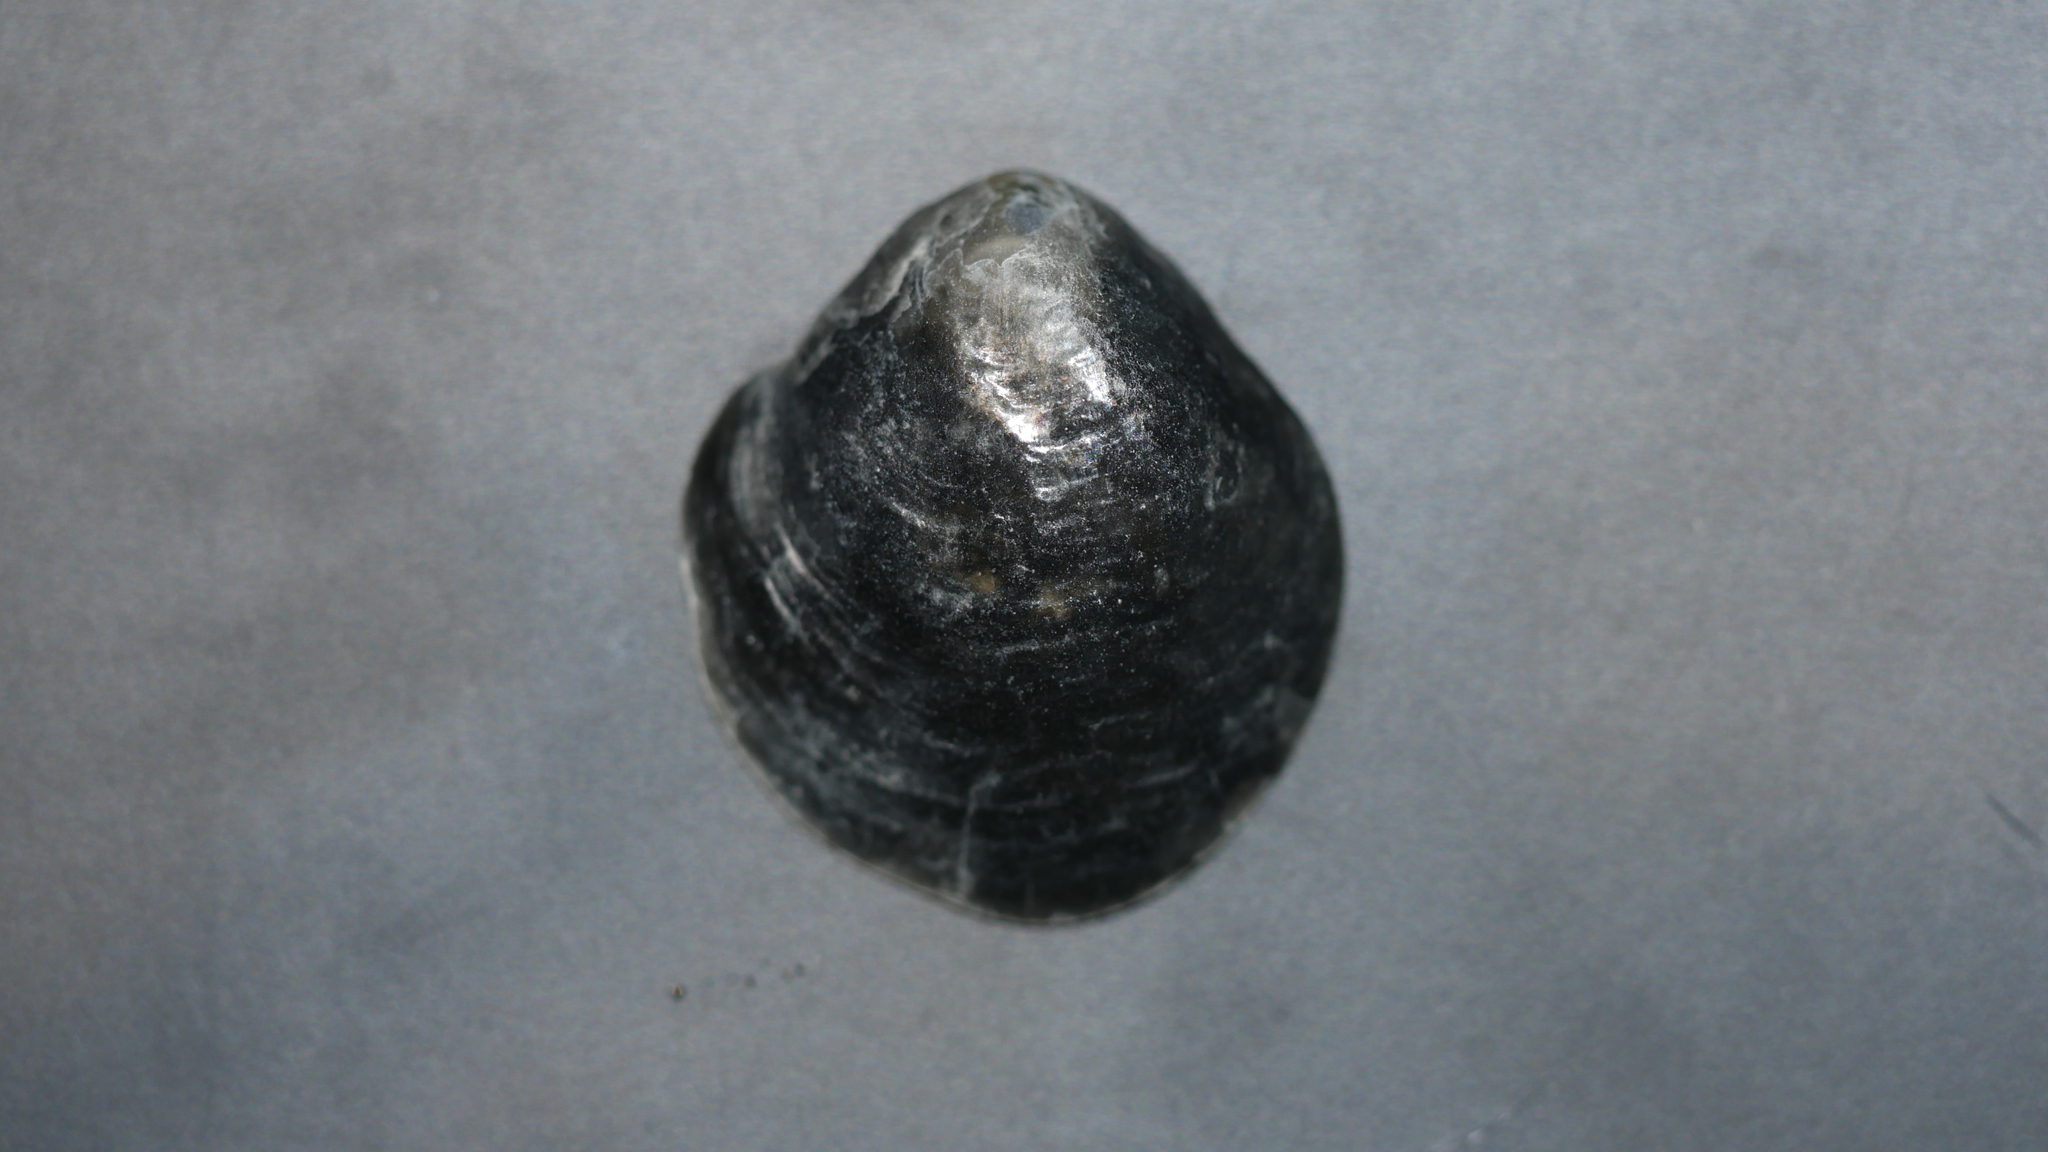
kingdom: Animalia
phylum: Mollusca
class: Bivalvia
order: Pectinida
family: Anomiidae
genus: Anomia
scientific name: Anomia simplex
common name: Common jingle shell
